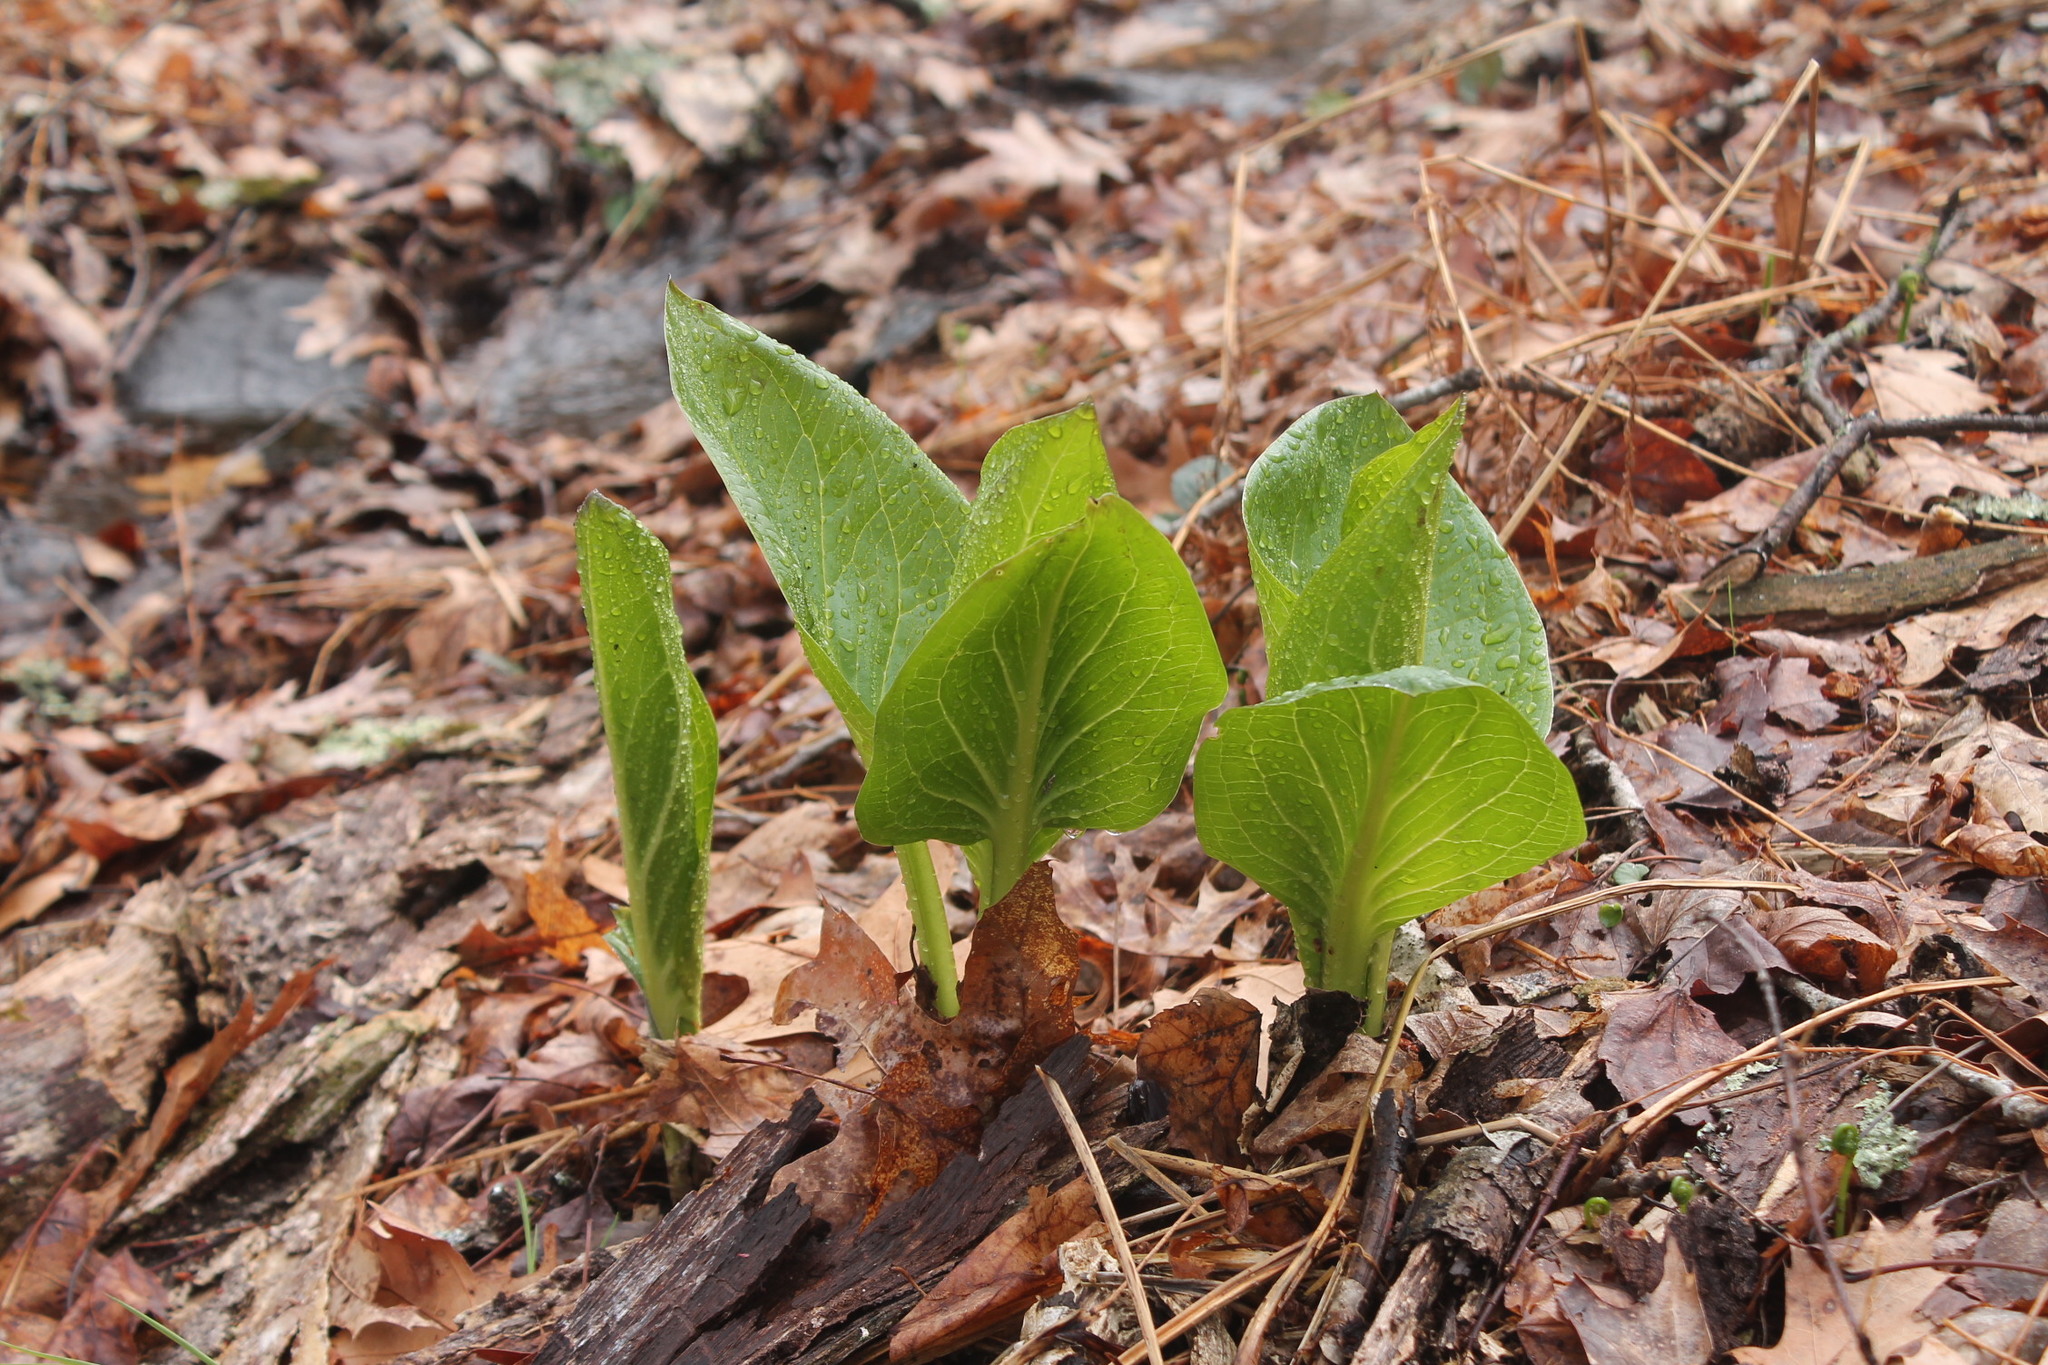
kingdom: Plantae
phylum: Tracheophyta
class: Liliopsida
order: Alismatales
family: Araceae
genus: Symplocarpus
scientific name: Symplocarpus foetidus
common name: Eastern skunk cabbage
